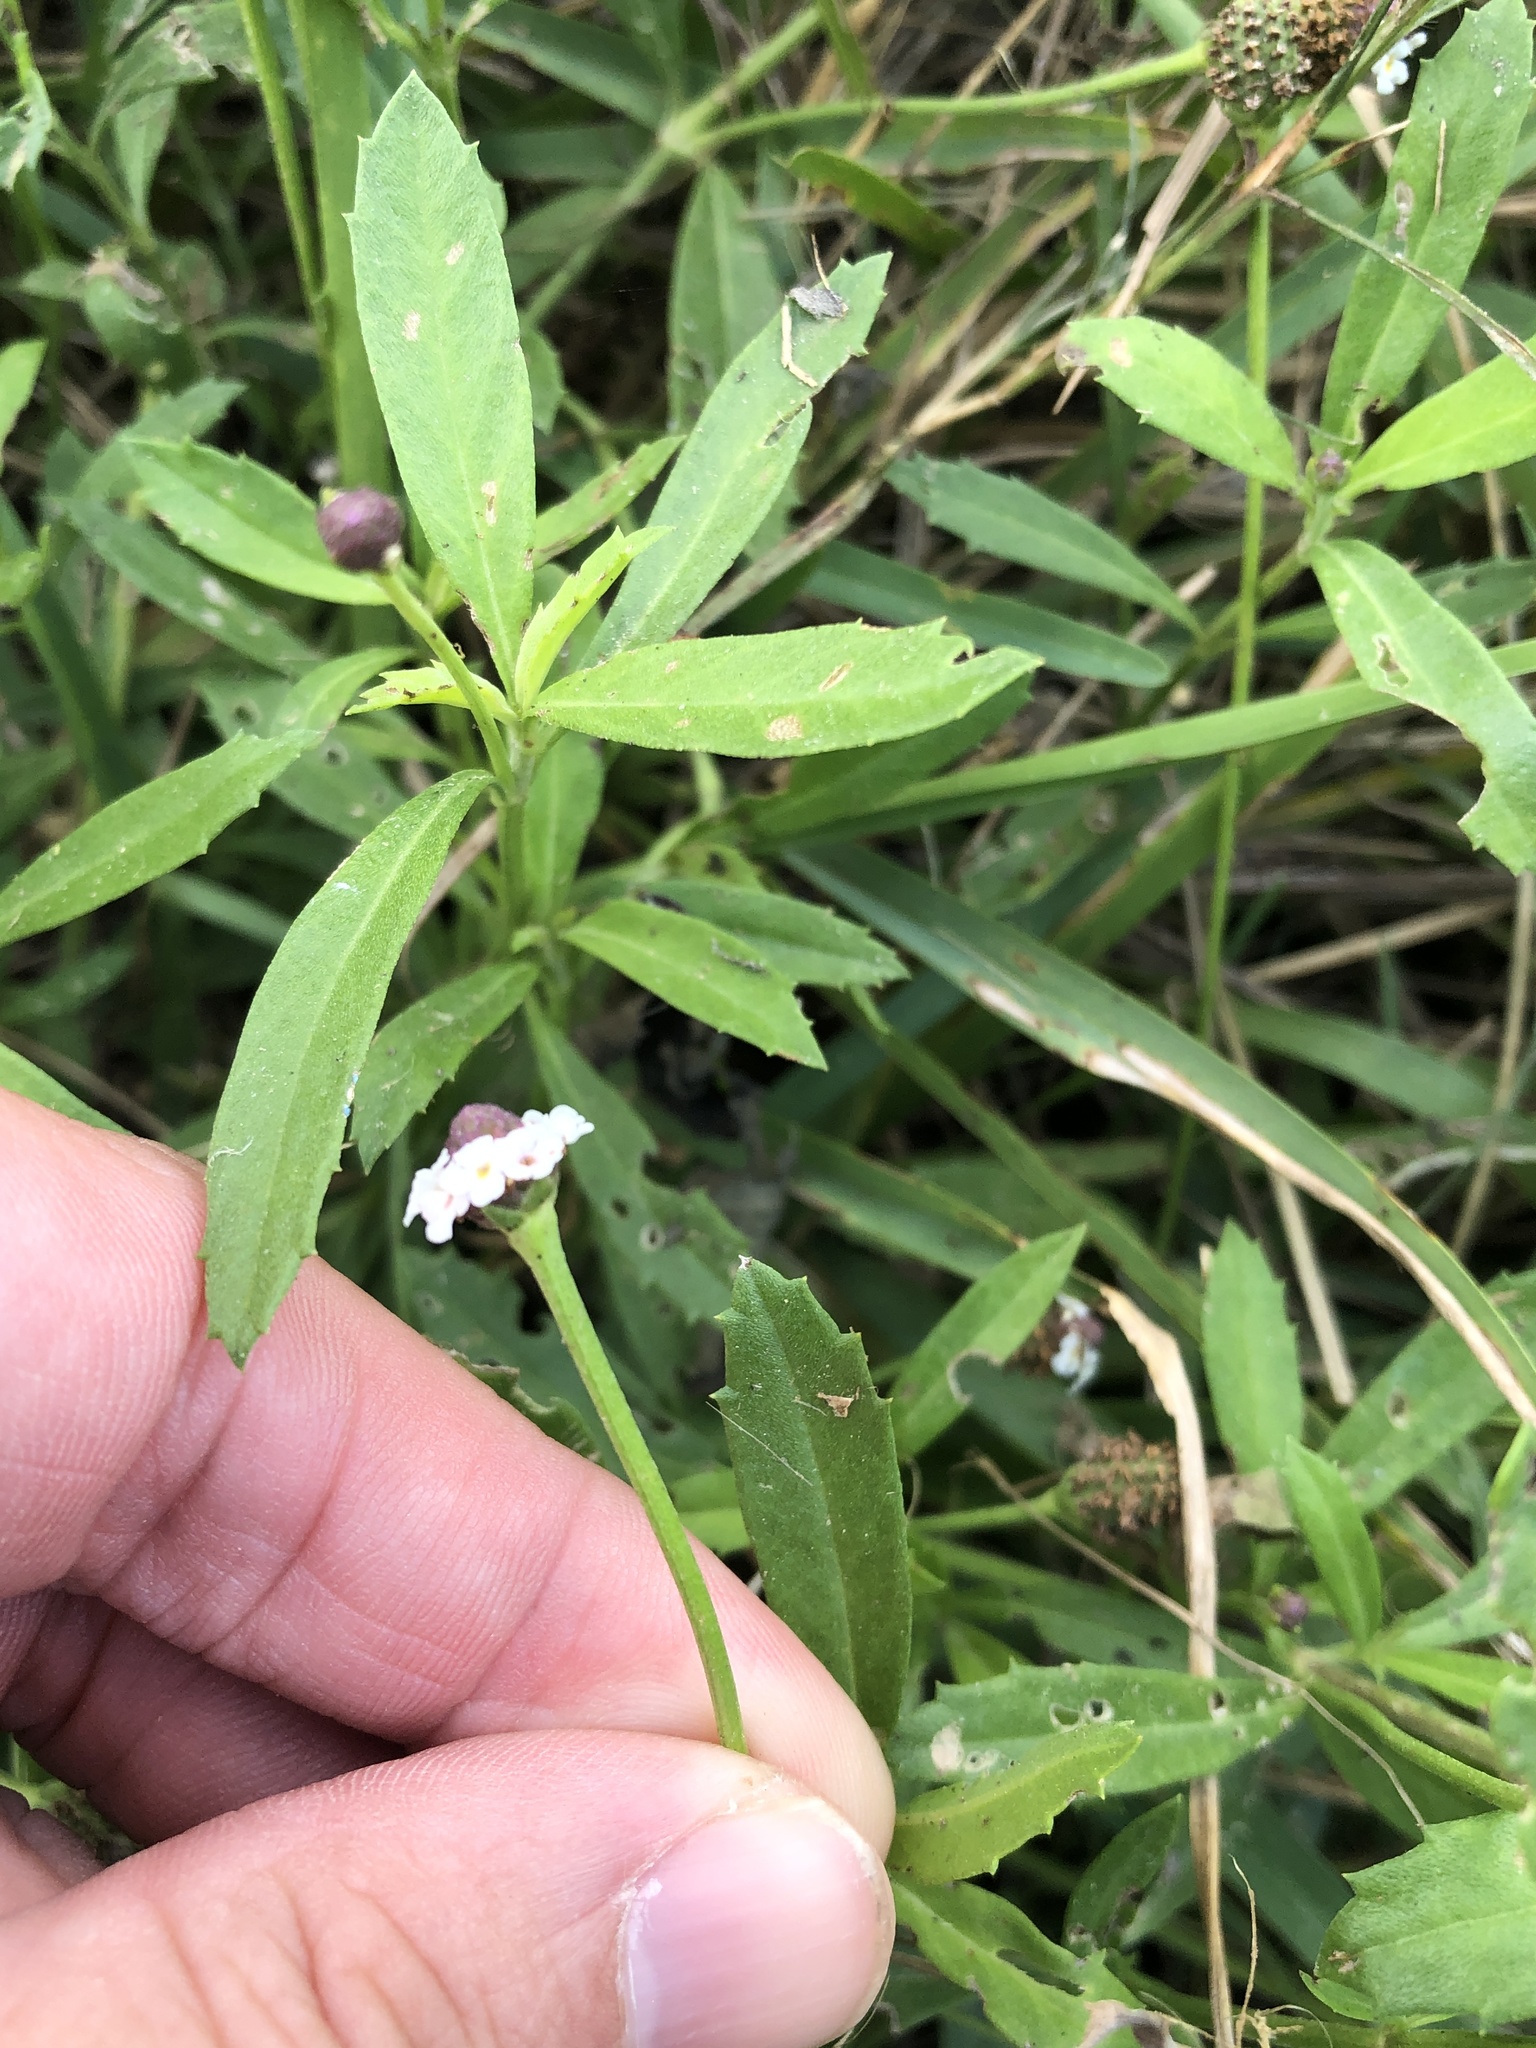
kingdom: Plantae
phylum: Tracheophyta
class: Magnoliopsida
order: Lamiales
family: Verbenaceae
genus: Phyla
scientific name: Phyla nodiflora
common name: Frogfruit
